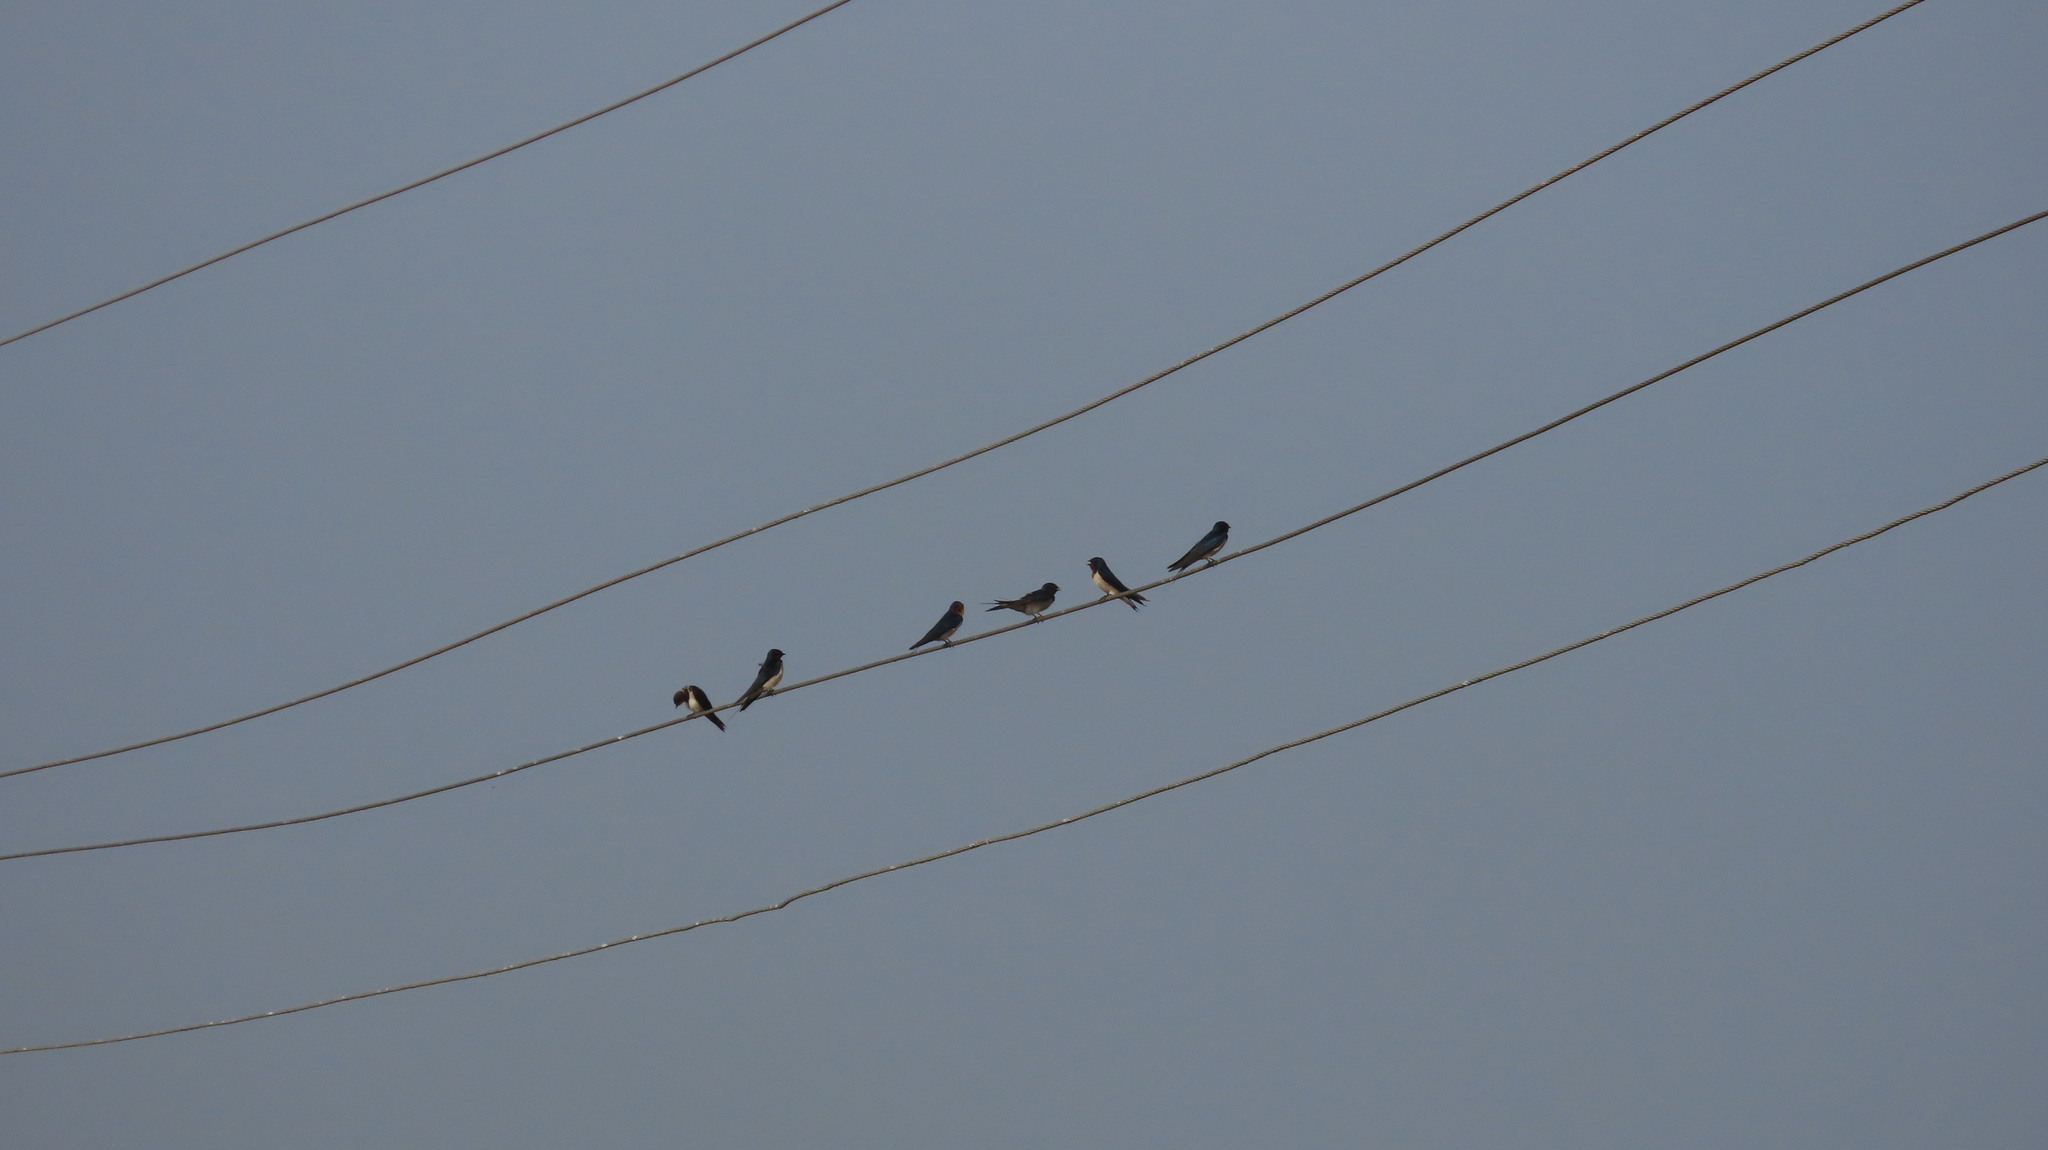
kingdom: Animalia
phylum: Chordata
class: Aves
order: Passeriformes
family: Hirundinidae
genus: Hirundo
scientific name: Hirundo rustica
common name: Barn swallow
